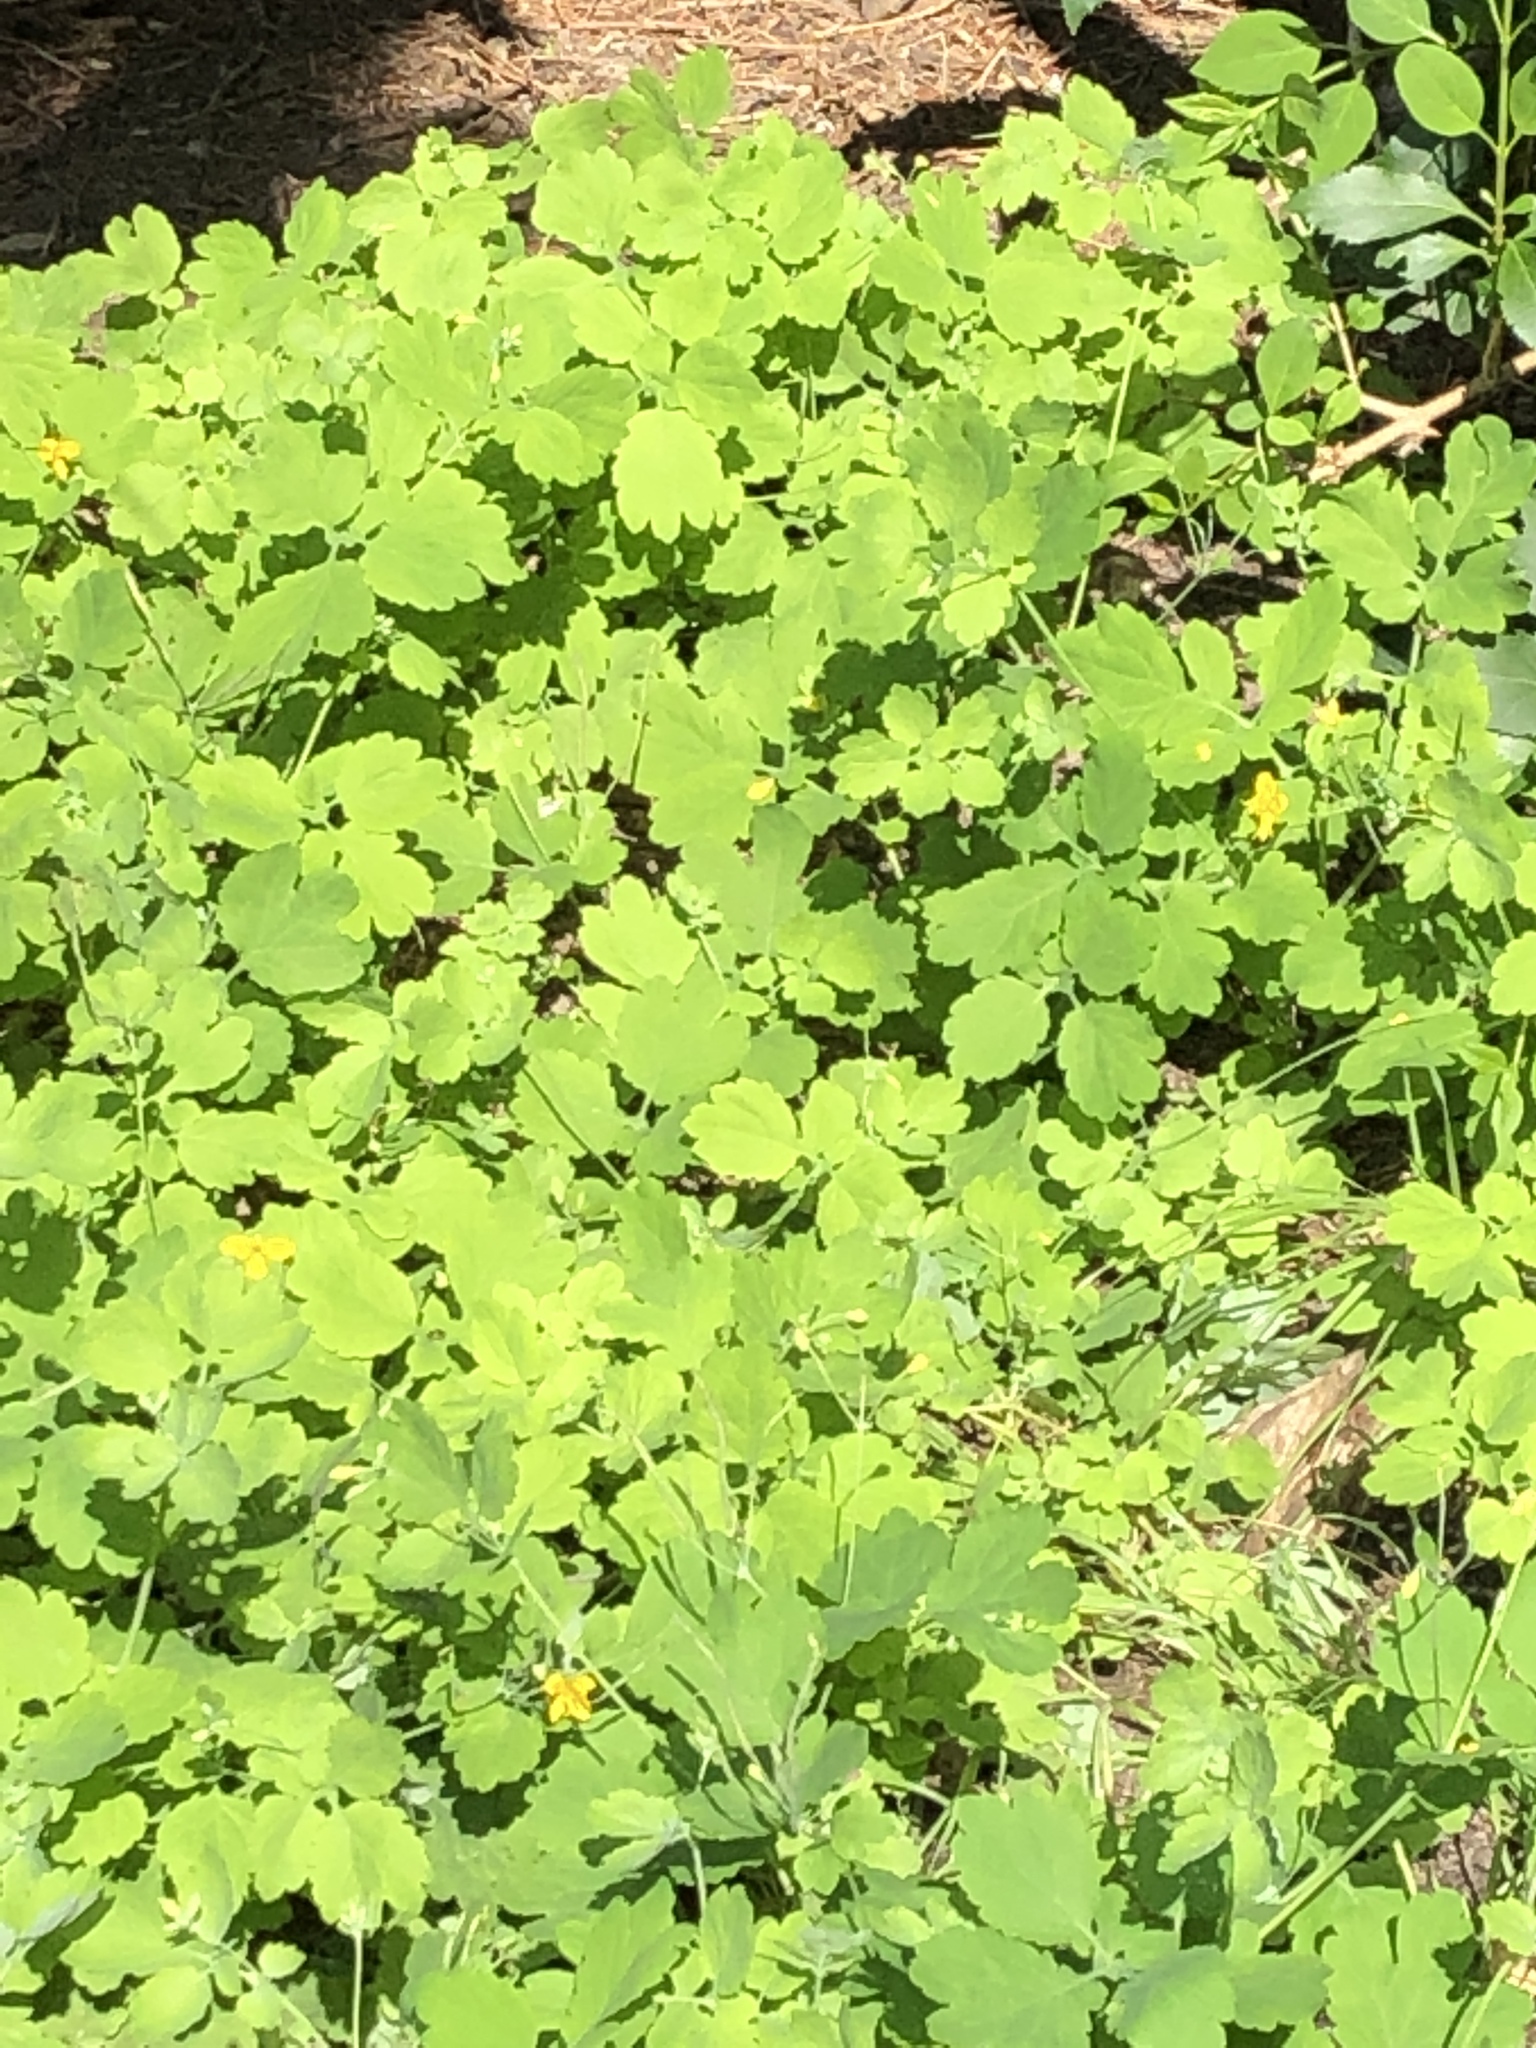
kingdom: Plantae
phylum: Tracheophyta
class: Magnoliopsida
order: Ranunculales
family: Papaveraceae
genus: Chelidonium
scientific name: Chelidonium majus
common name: Greater celandine
